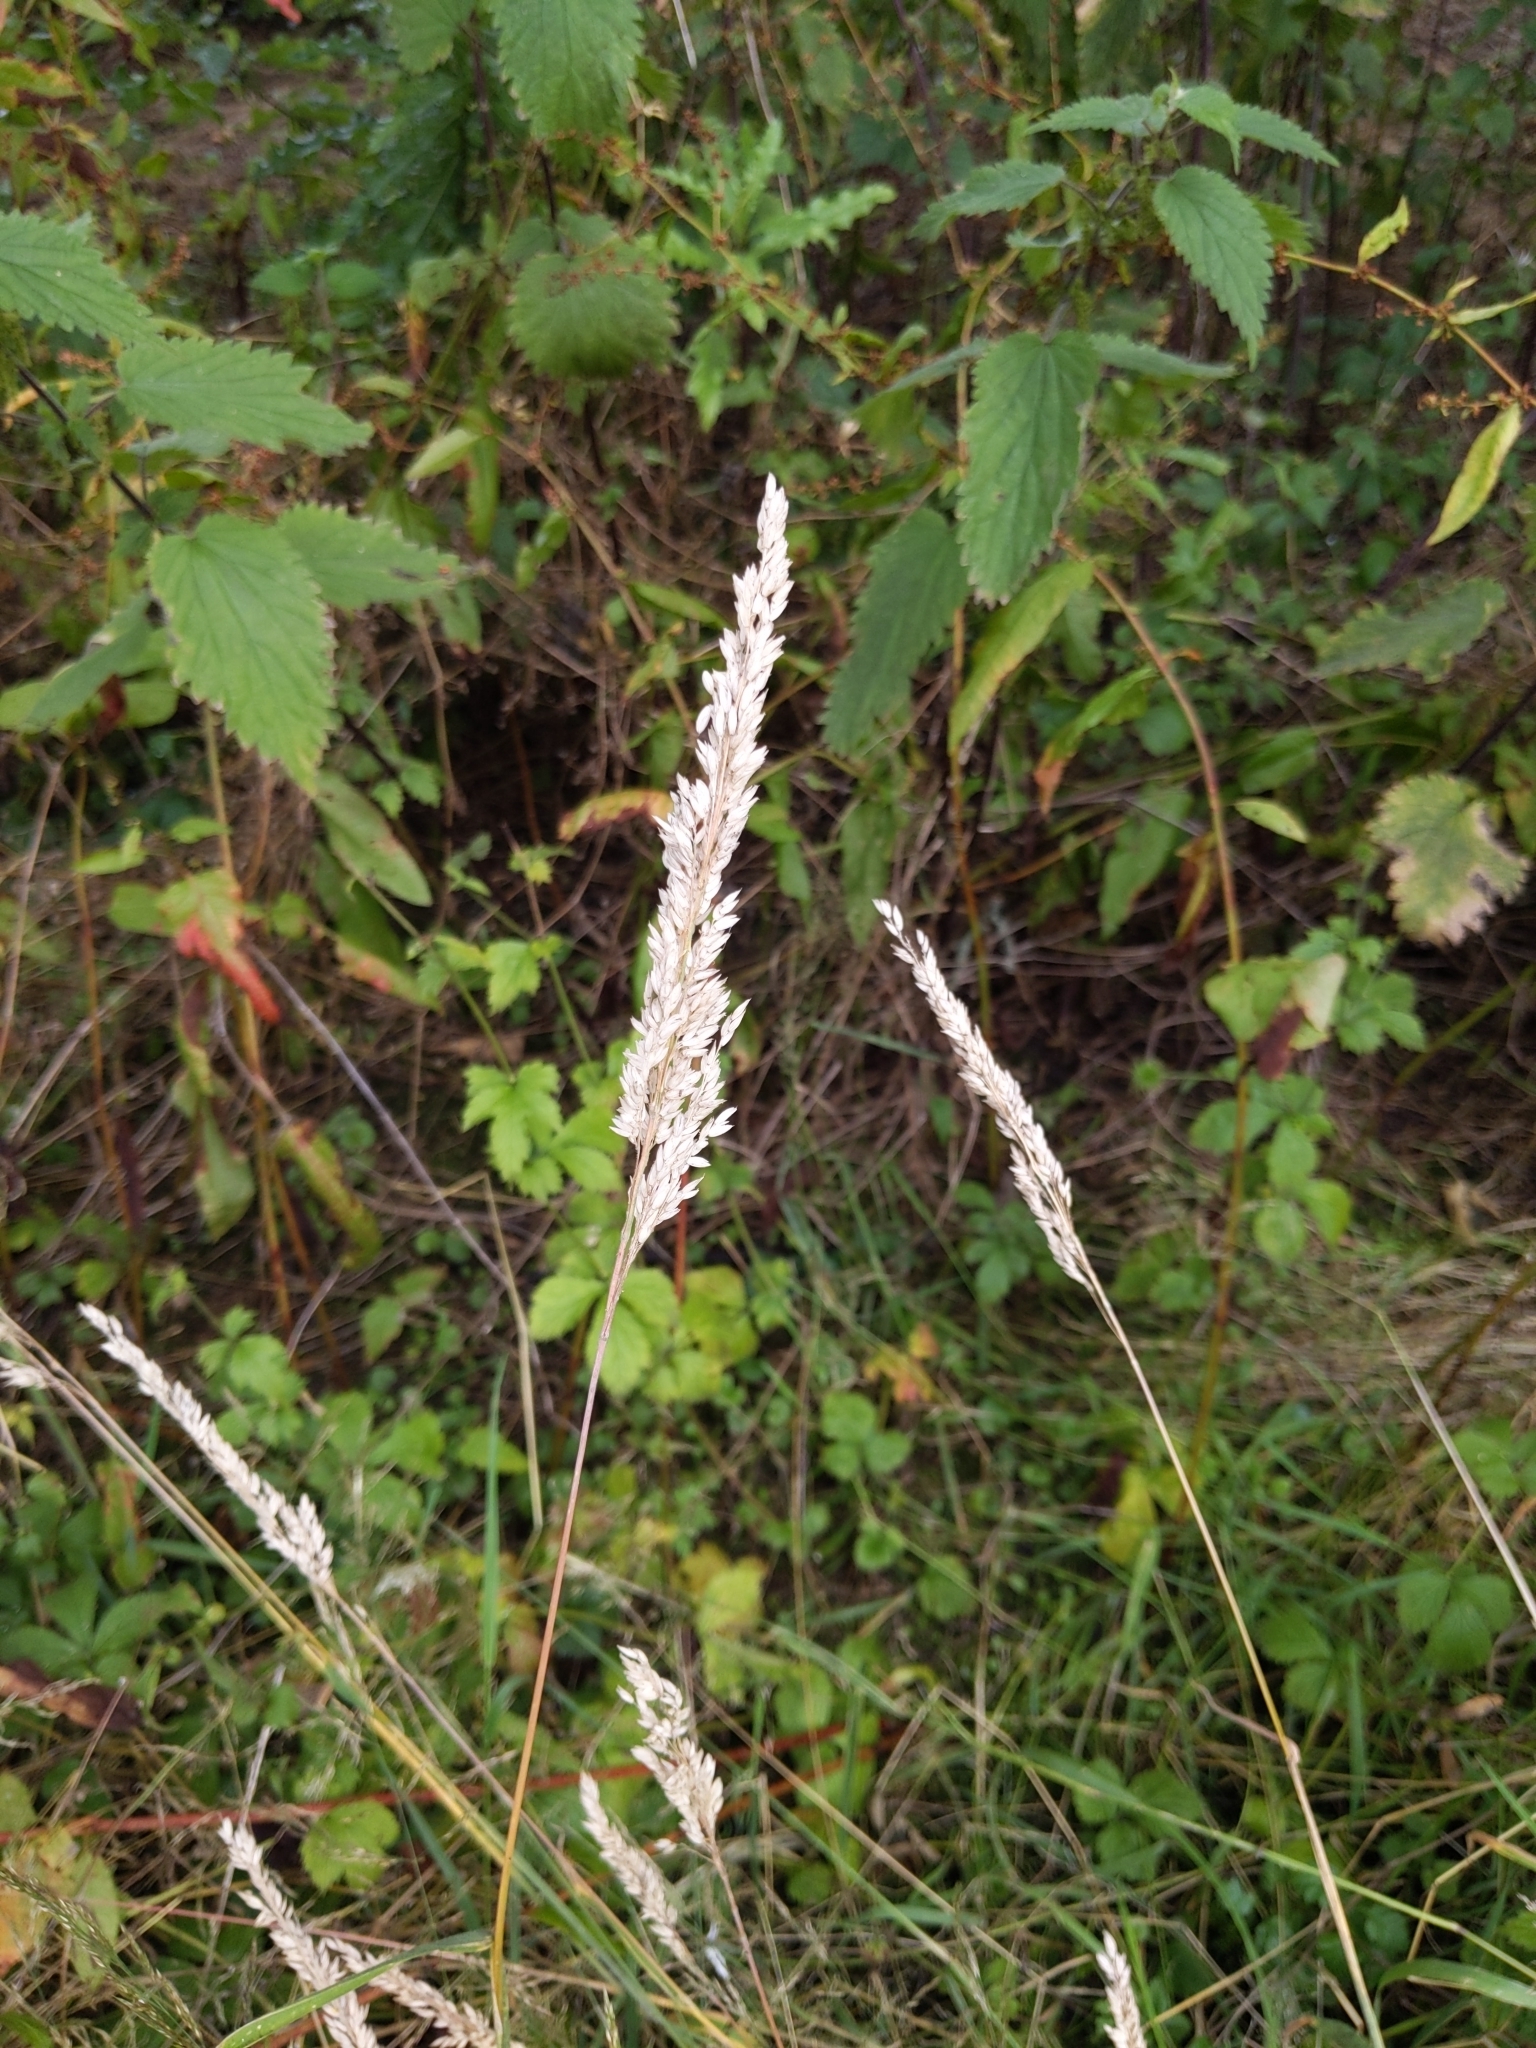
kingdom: Plantae
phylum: Tracheophyta
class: Liliopsida
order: Poales
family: Poaceae
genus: Holcus
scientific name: Holcus lanatus
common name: Yorkshire-fog
